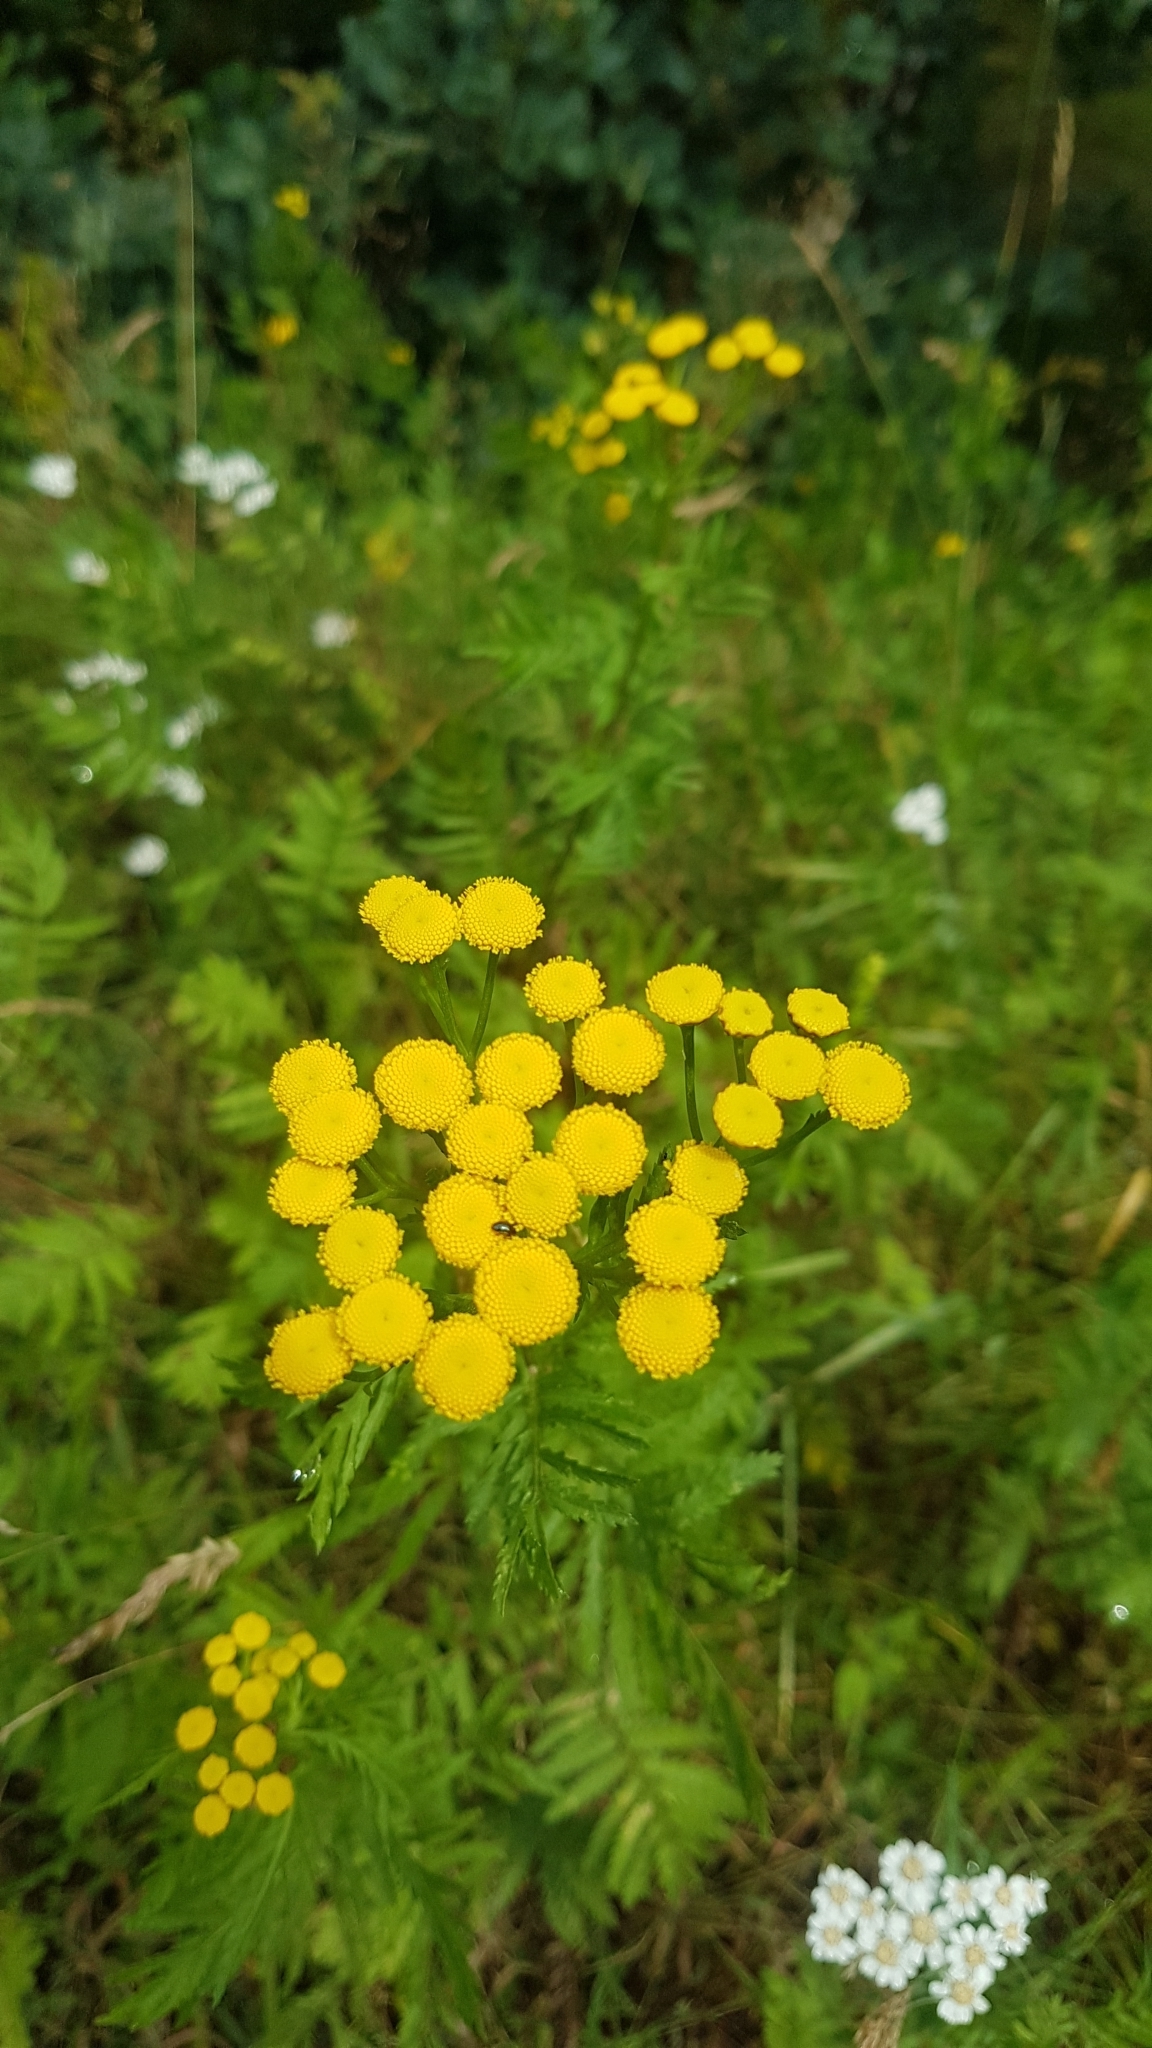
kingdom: Plantae
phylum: Tracheophyta
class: Magnoliopsida
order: Asterales
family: Asteraceae
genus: Tanacetum
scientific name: Tanacetum vulgare
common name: Common tansy
